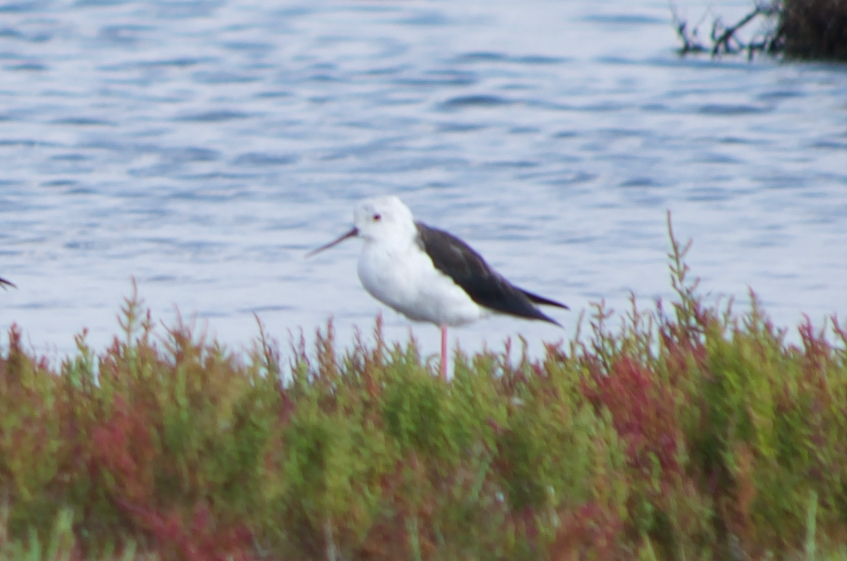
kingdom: Animalia
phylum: Chordata
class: Aves
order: Charadriiformes
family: Recurvirostridae
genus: Himantopus
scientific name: Himantopus himantopus
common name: Black-winged stilt
